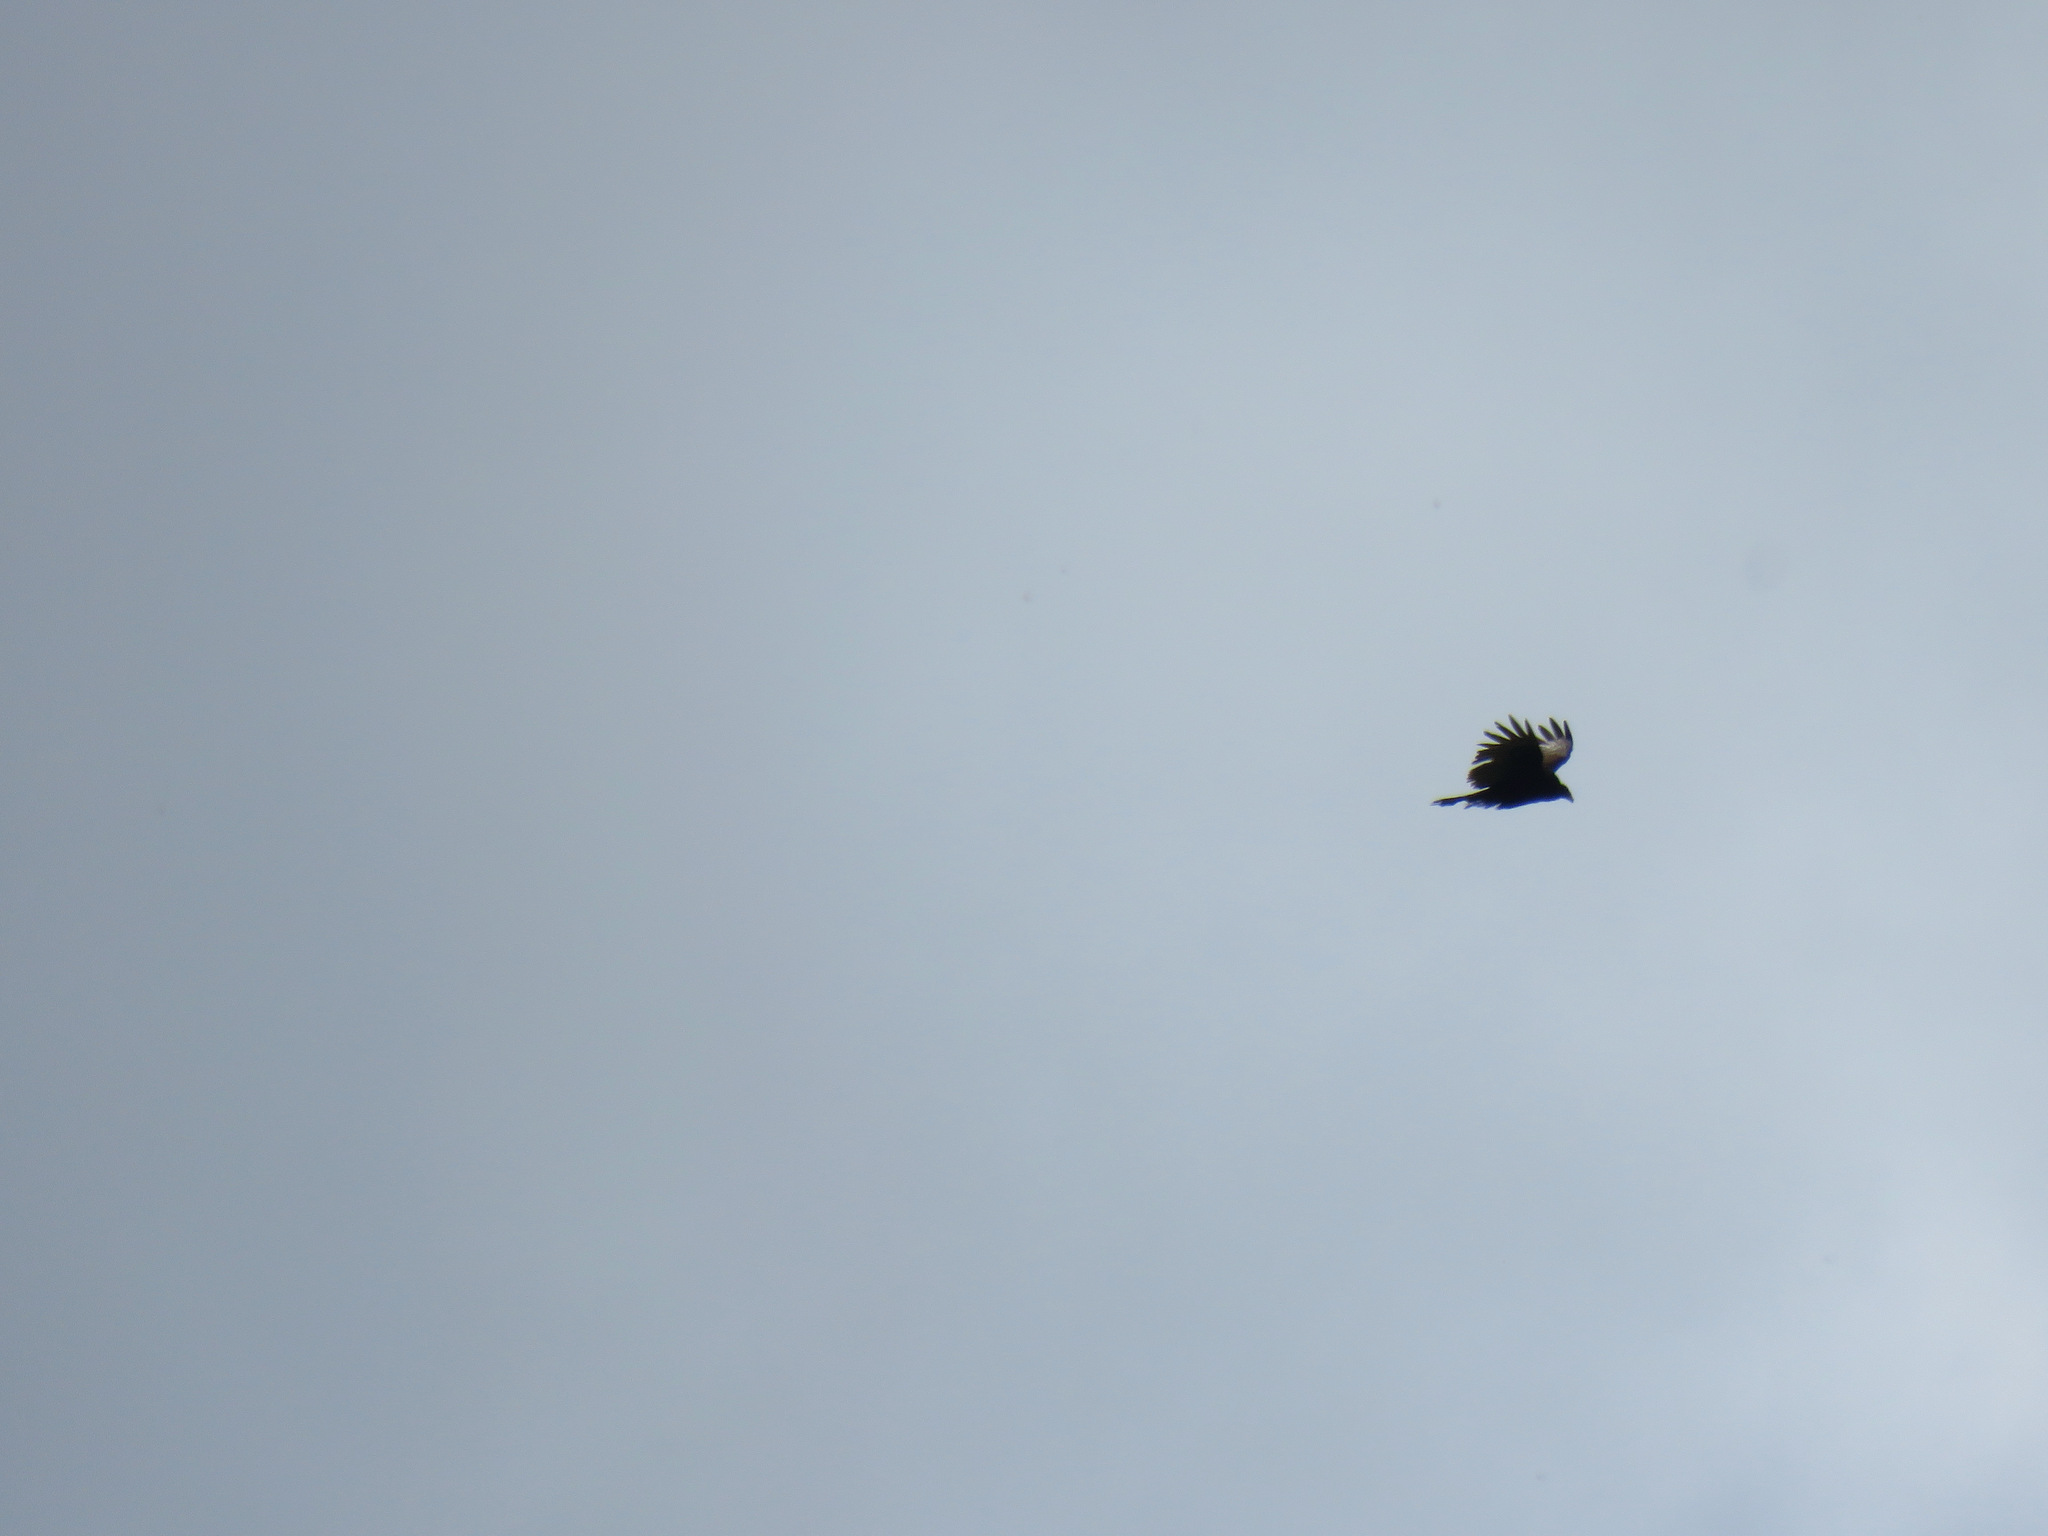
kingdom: Animalia
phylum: Chordata
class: Aves
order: Accipitriformes
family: Cathartidae
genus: Cathartes
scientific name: Cathartes aura
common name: Turkey vulture
